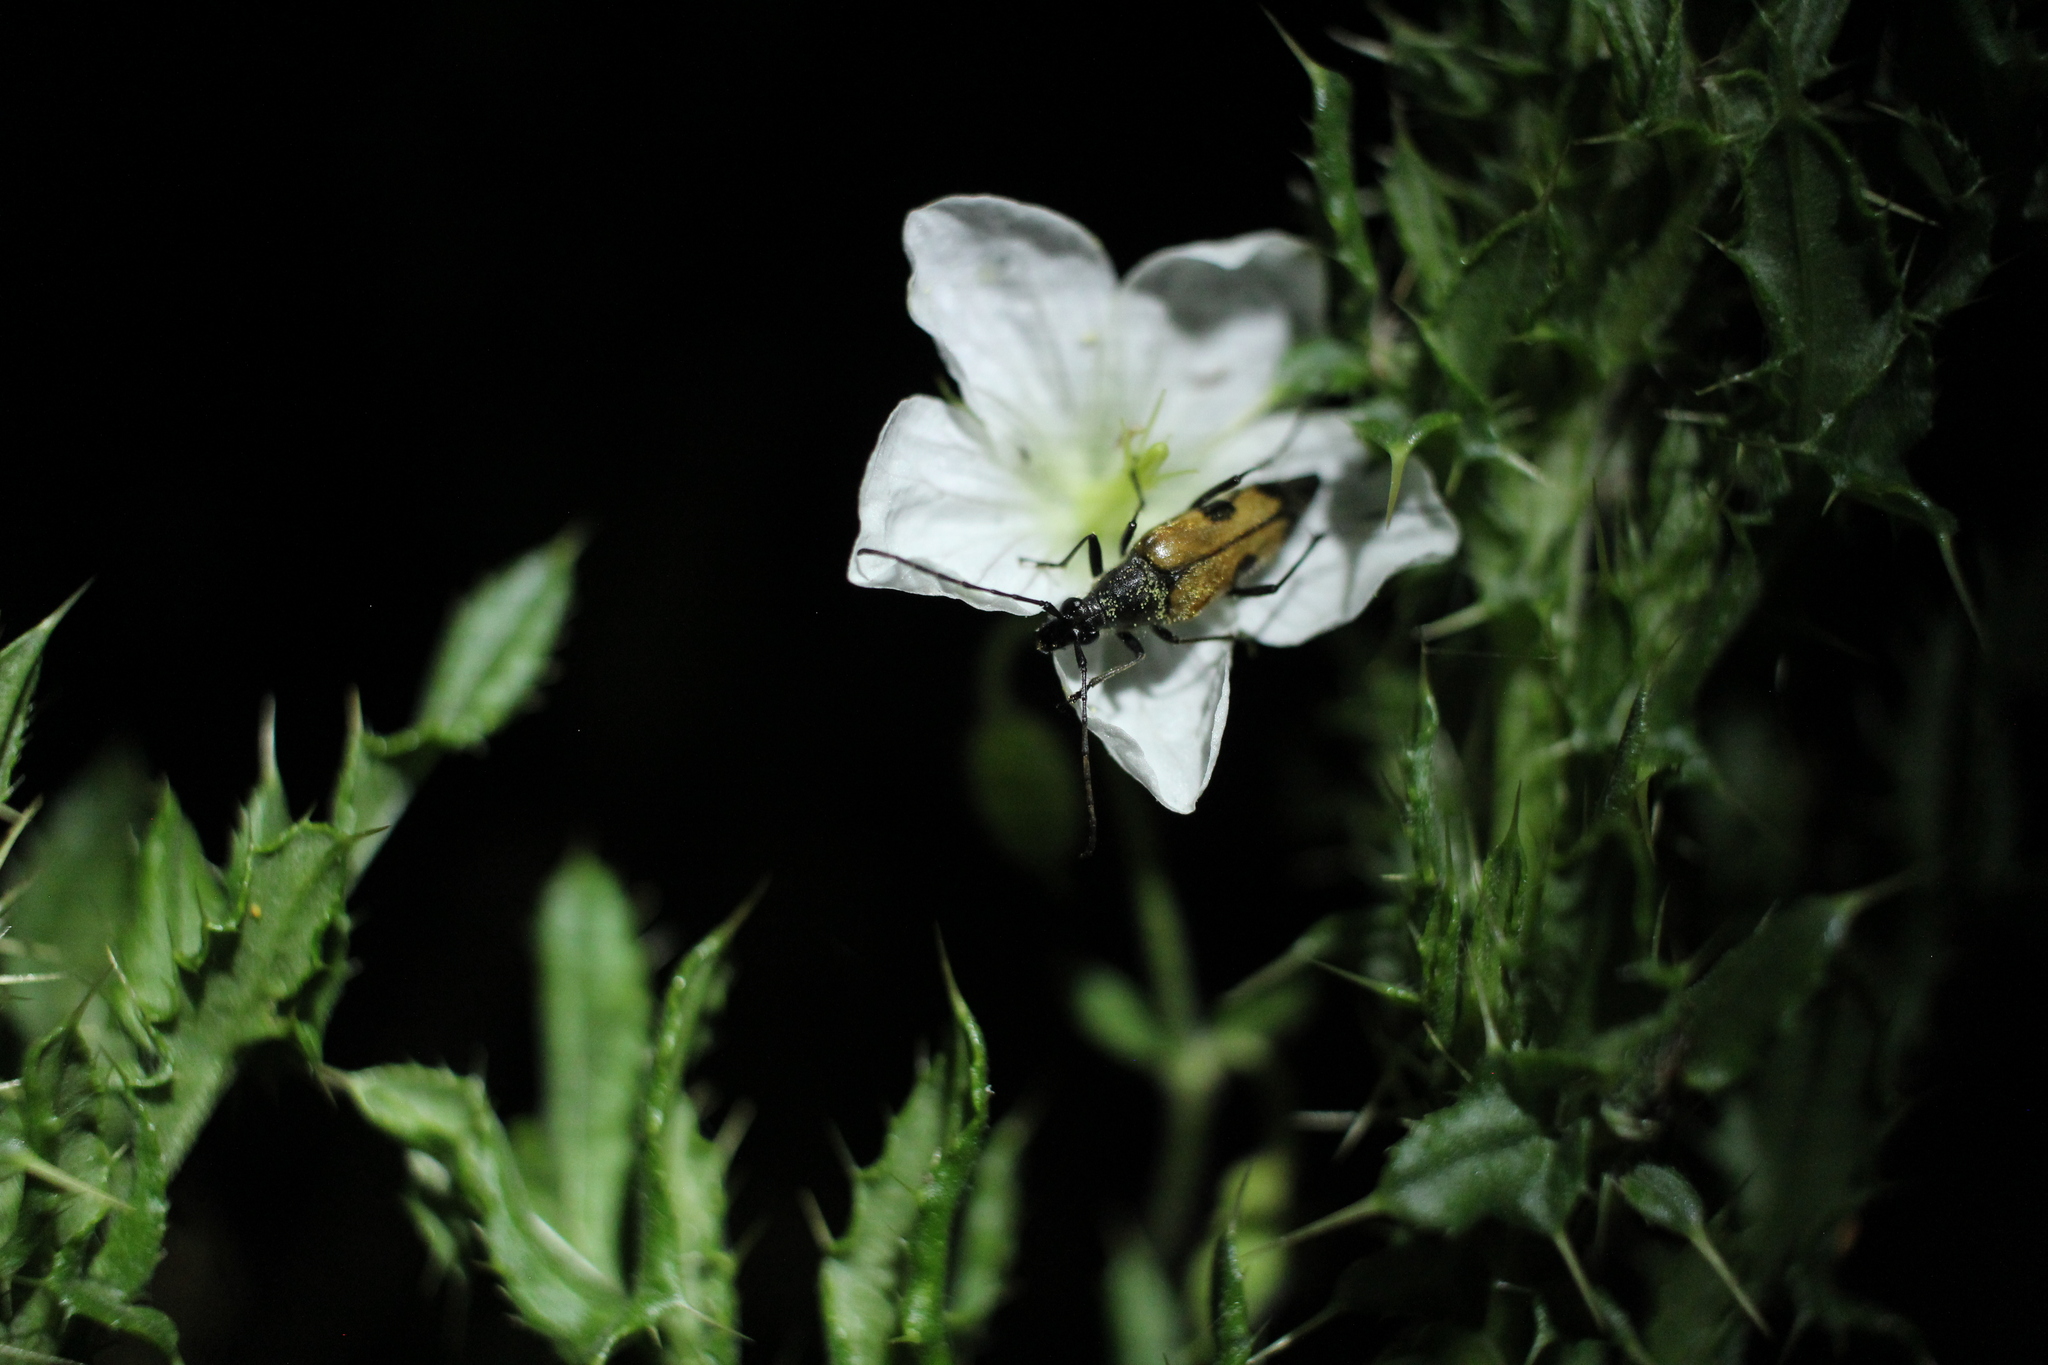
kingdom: Animalia
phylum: Arthropoda
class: Insecta
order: Coleoptera
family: Cerambycidae
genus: Etorofus
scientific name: Etorofus
